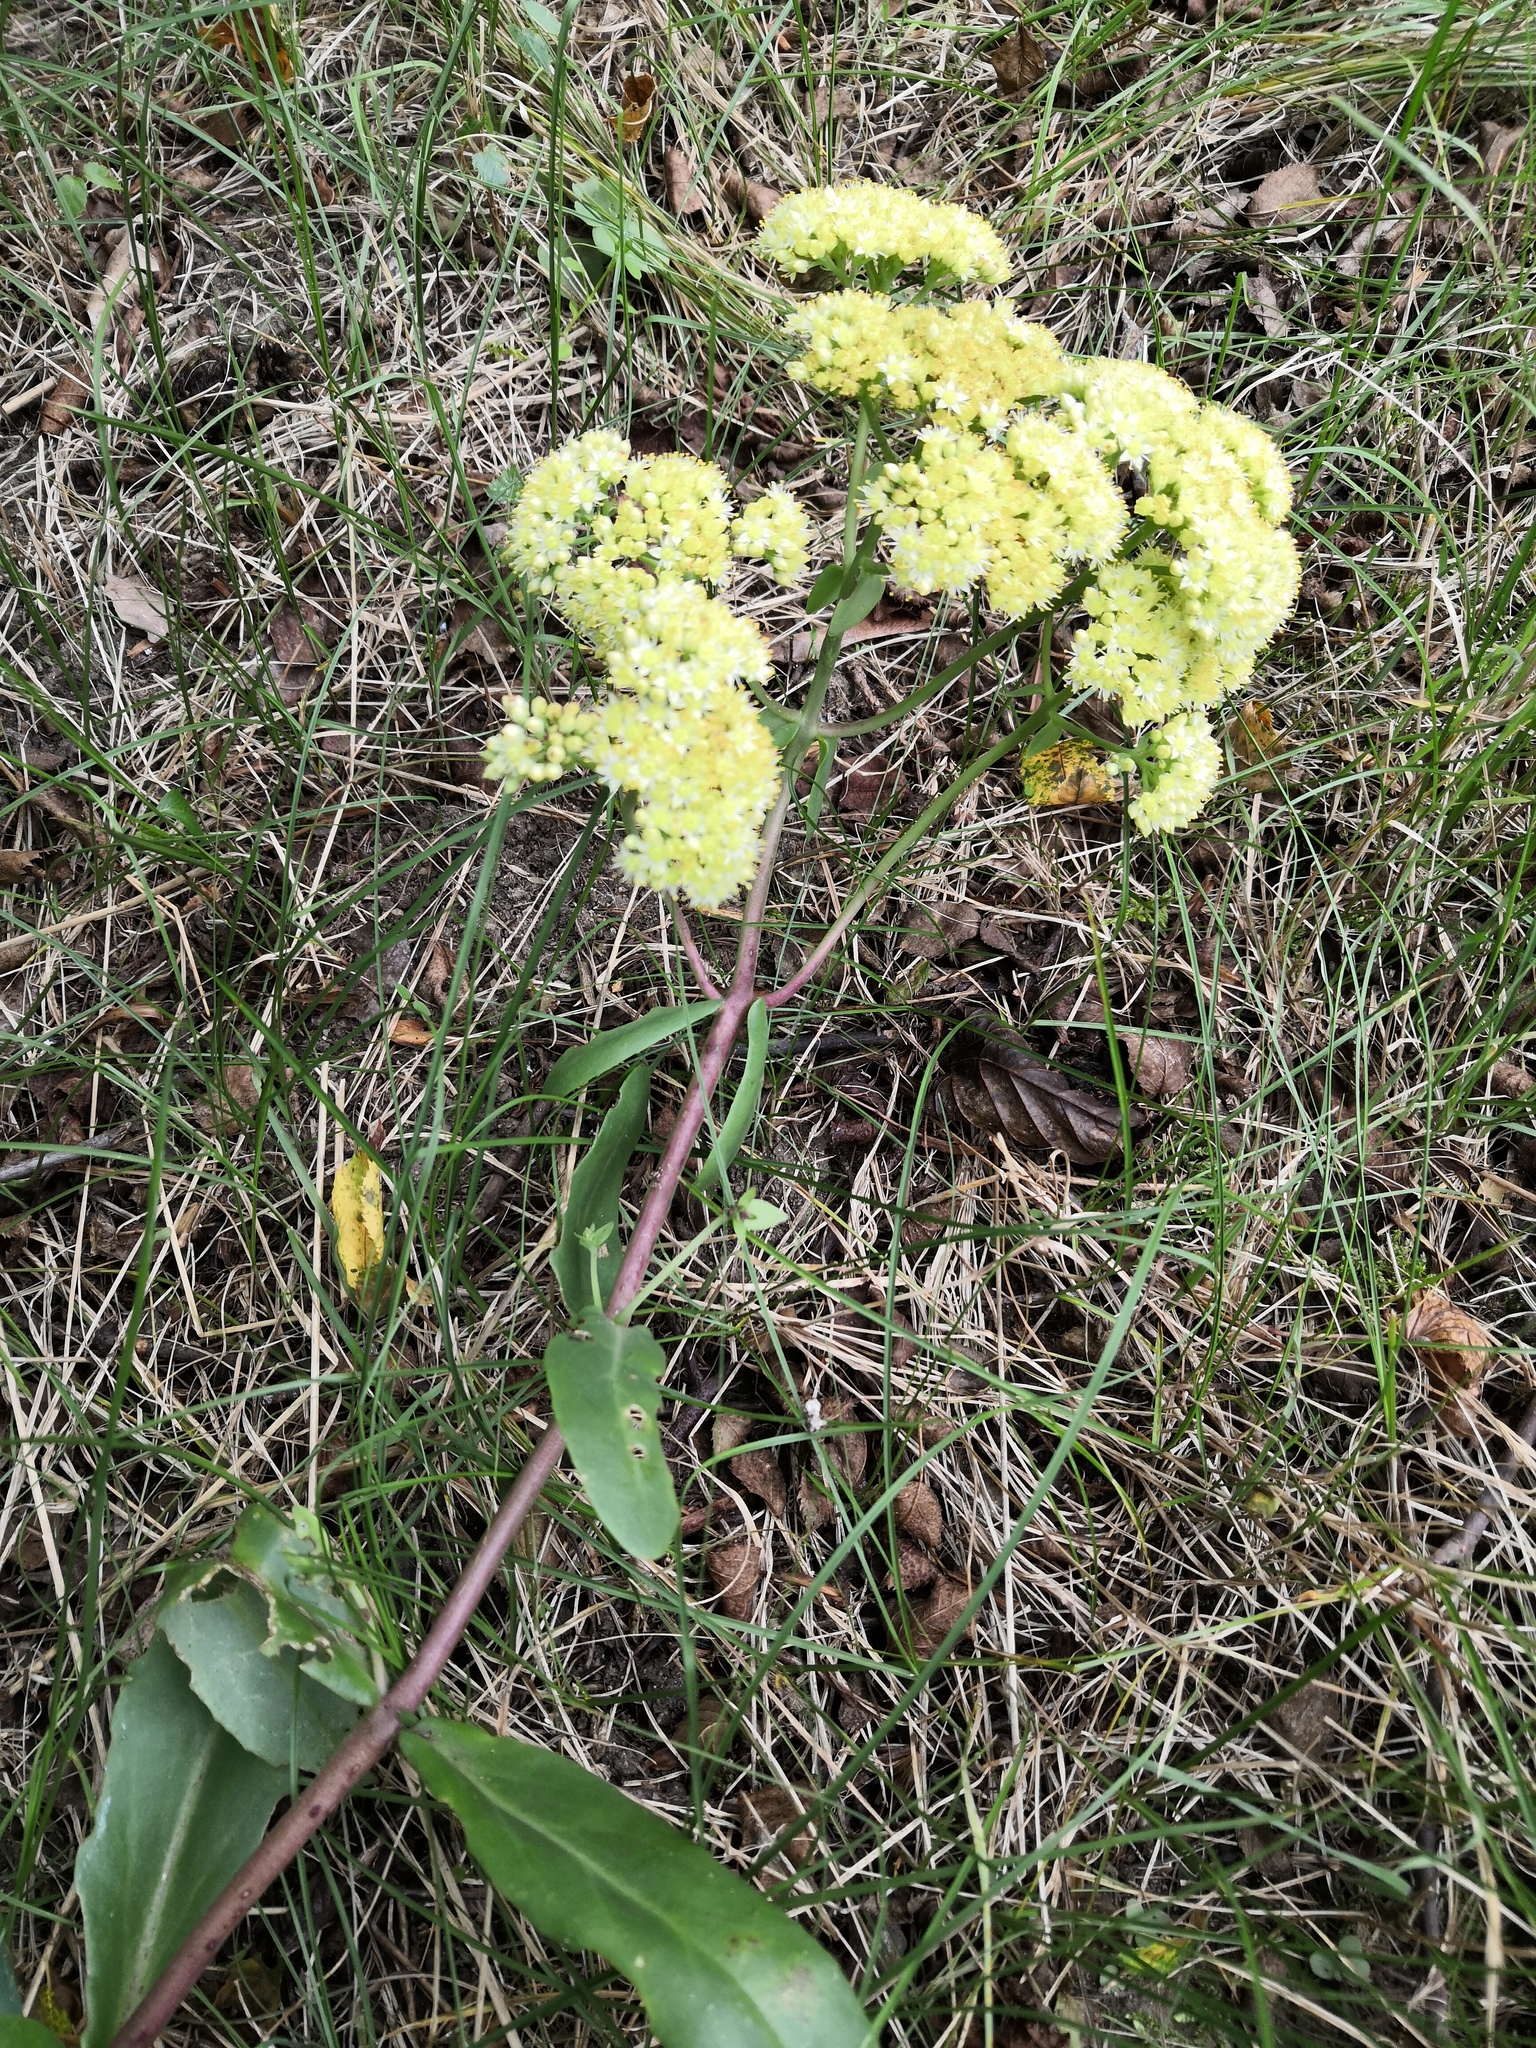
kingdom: Plantae
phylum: Tracheophyta
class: Magnoliopsida
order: Saxifragales
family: Crassulaceae
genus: Hylotelephium
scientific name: Hylotelephium maximum
